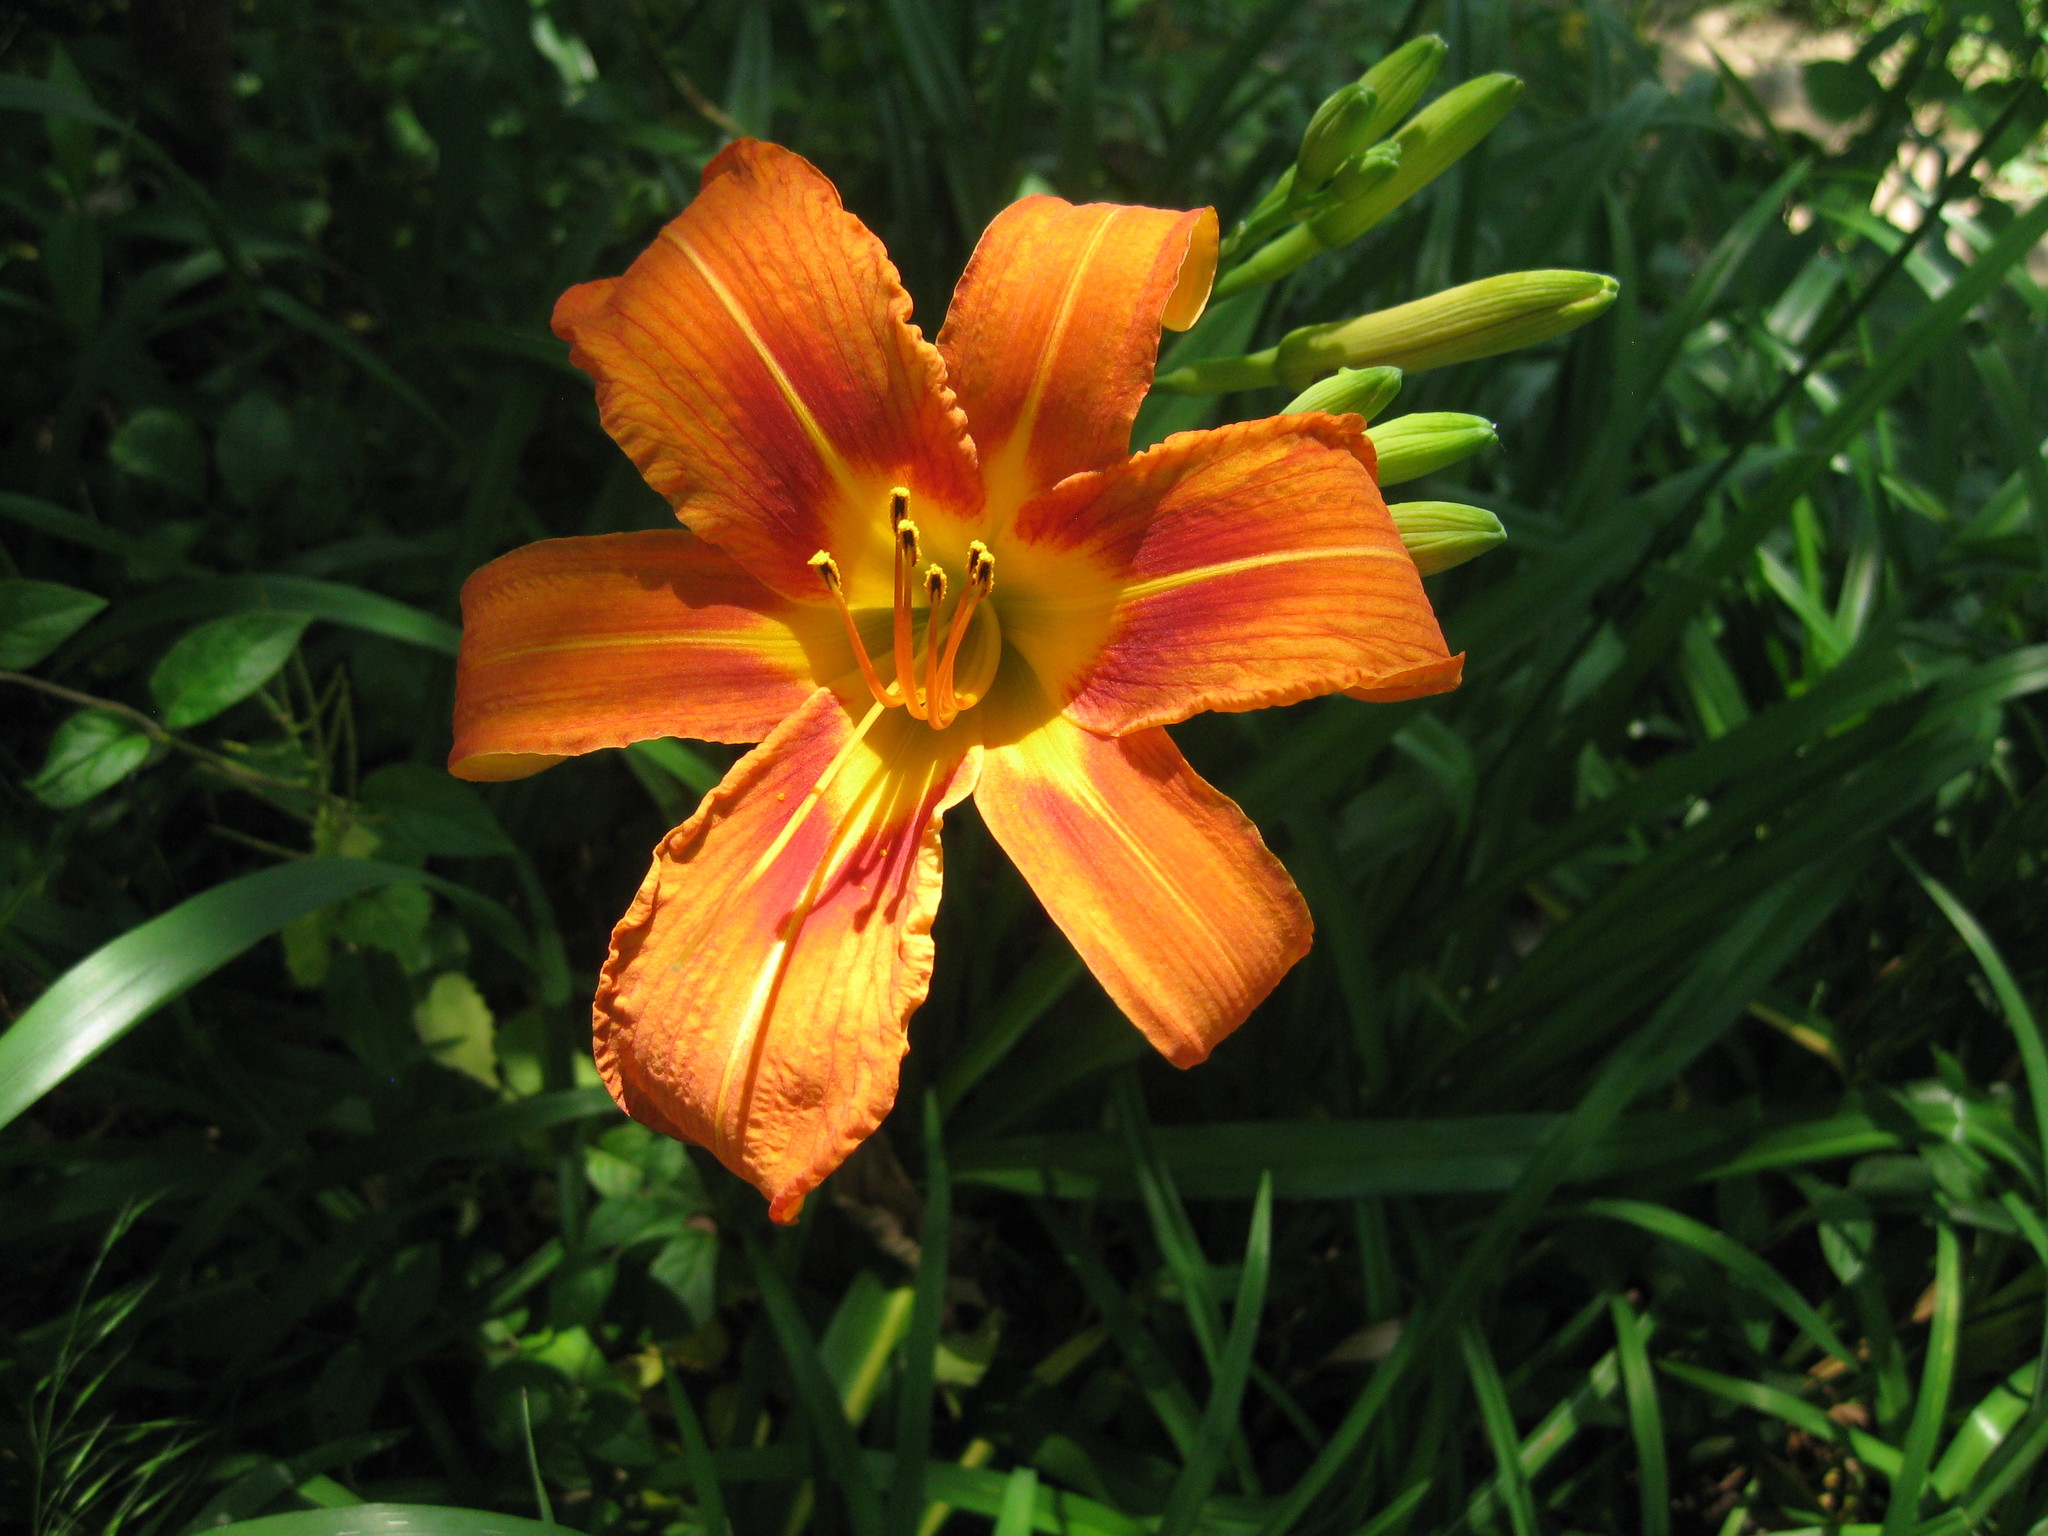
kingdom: Plantae
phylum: Tracheophyta
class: Liliopsida
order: Asparagales
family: Asphodelaceae
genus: Hemerocallis
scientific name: Hemerocallis fulva
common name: Orange day-lily
